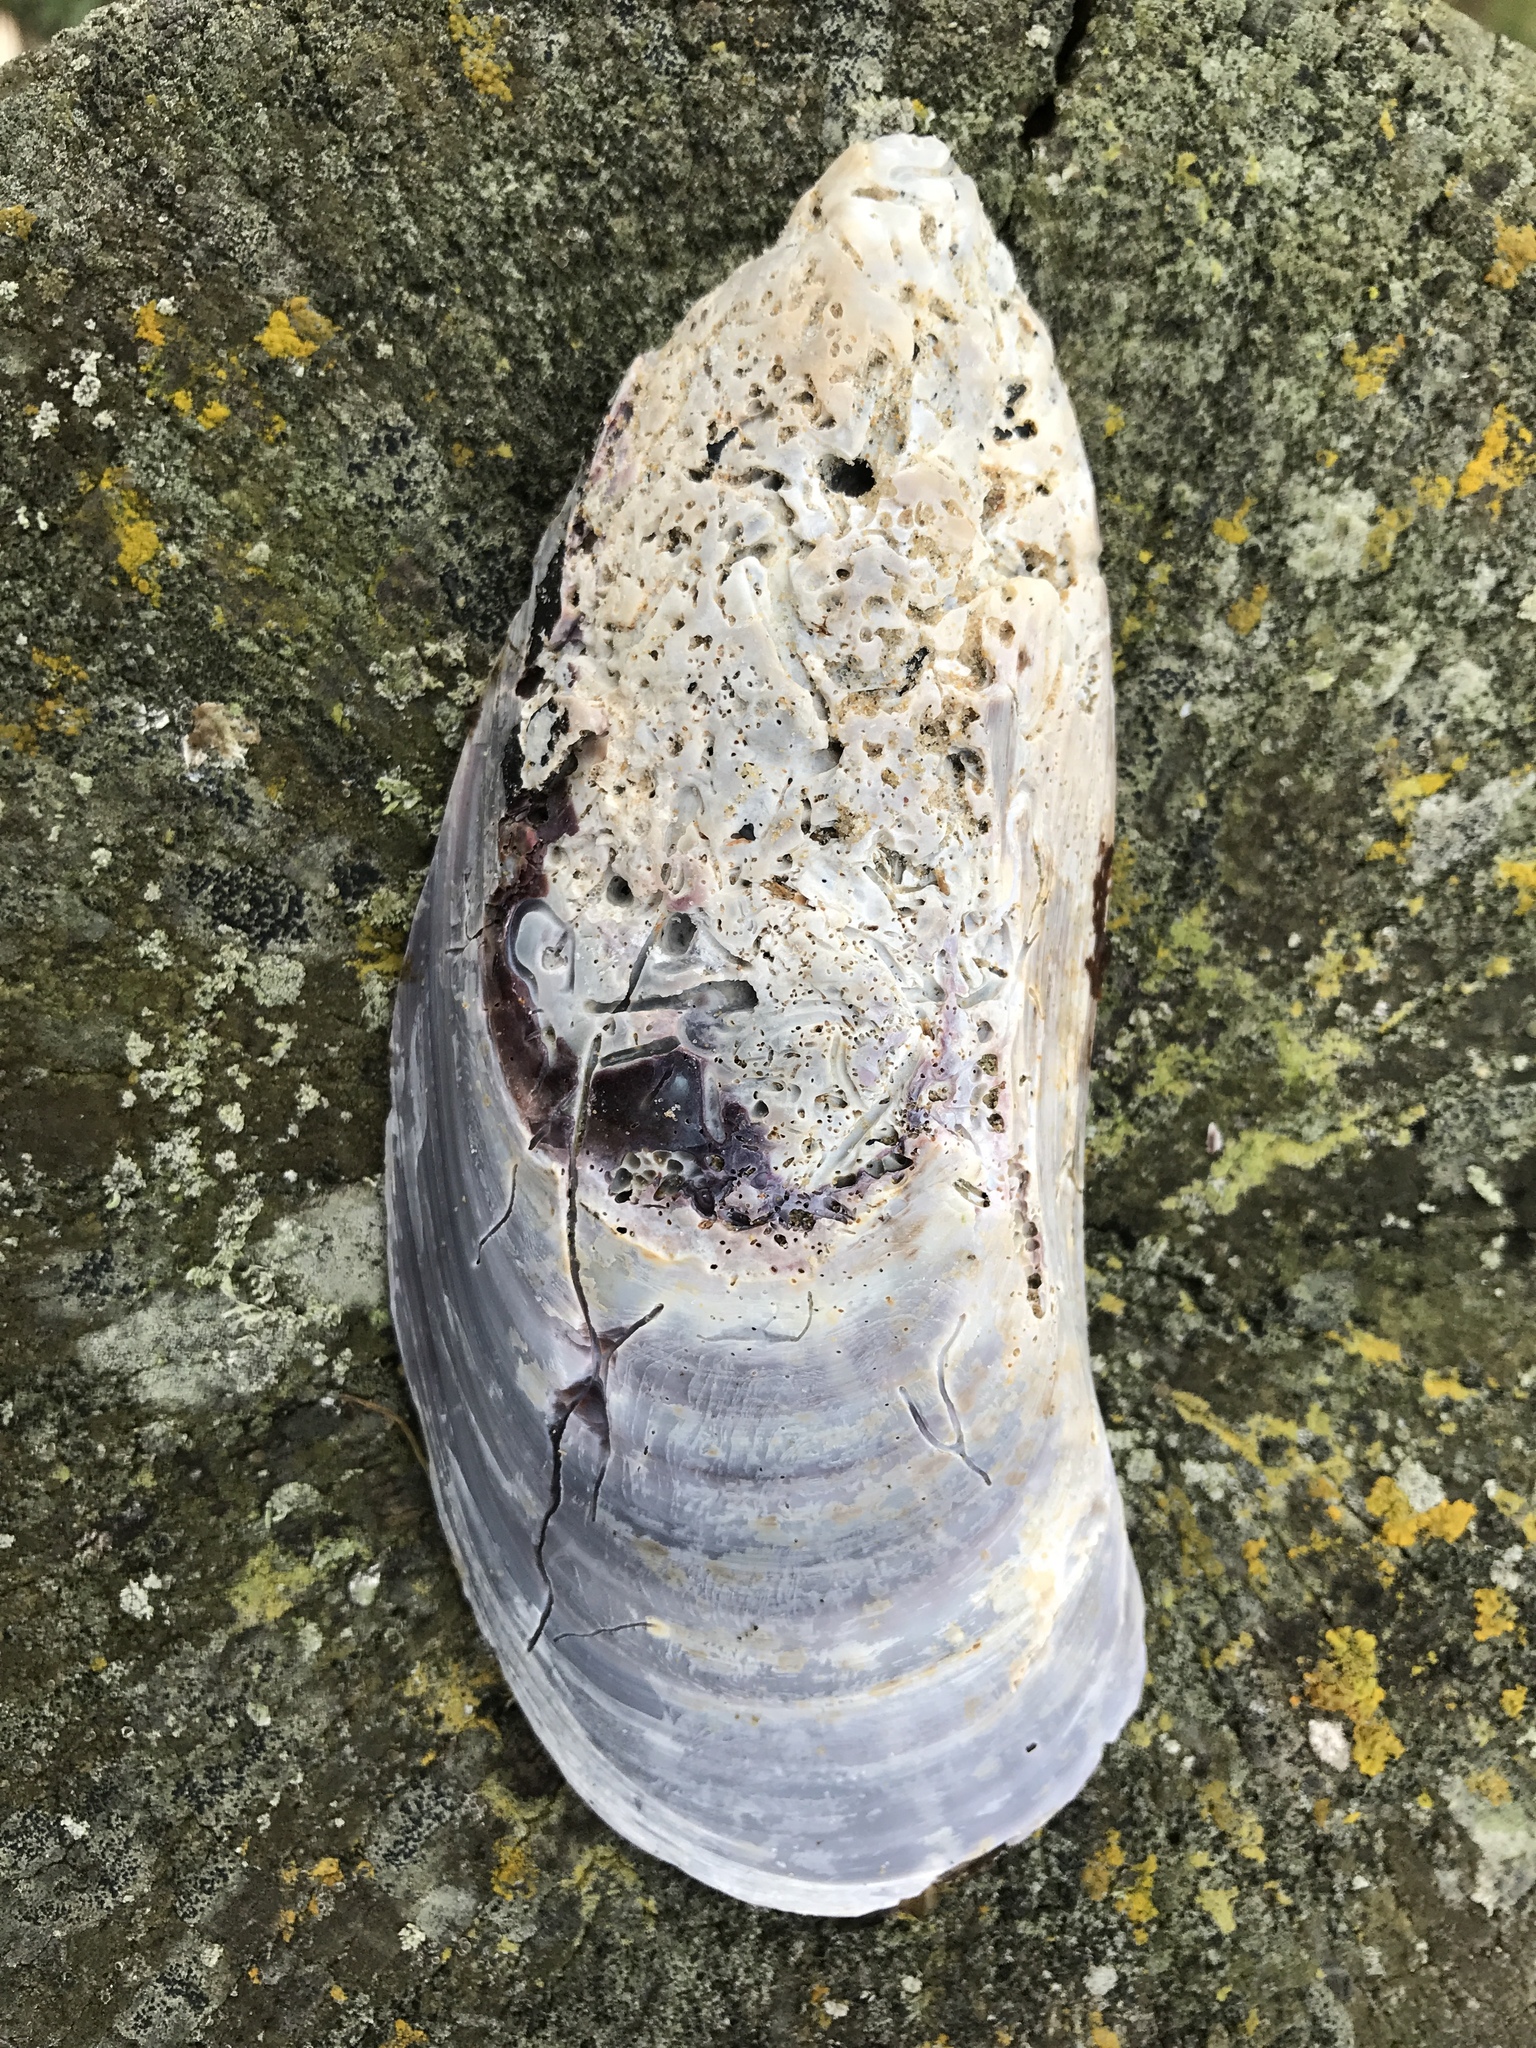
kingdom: Animalia
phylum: Mollusca
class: Bivalvia
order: Mytilida
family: Mytilidae
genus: Perna
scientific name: Perna canaliculus
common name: New zealand greenshelltm
